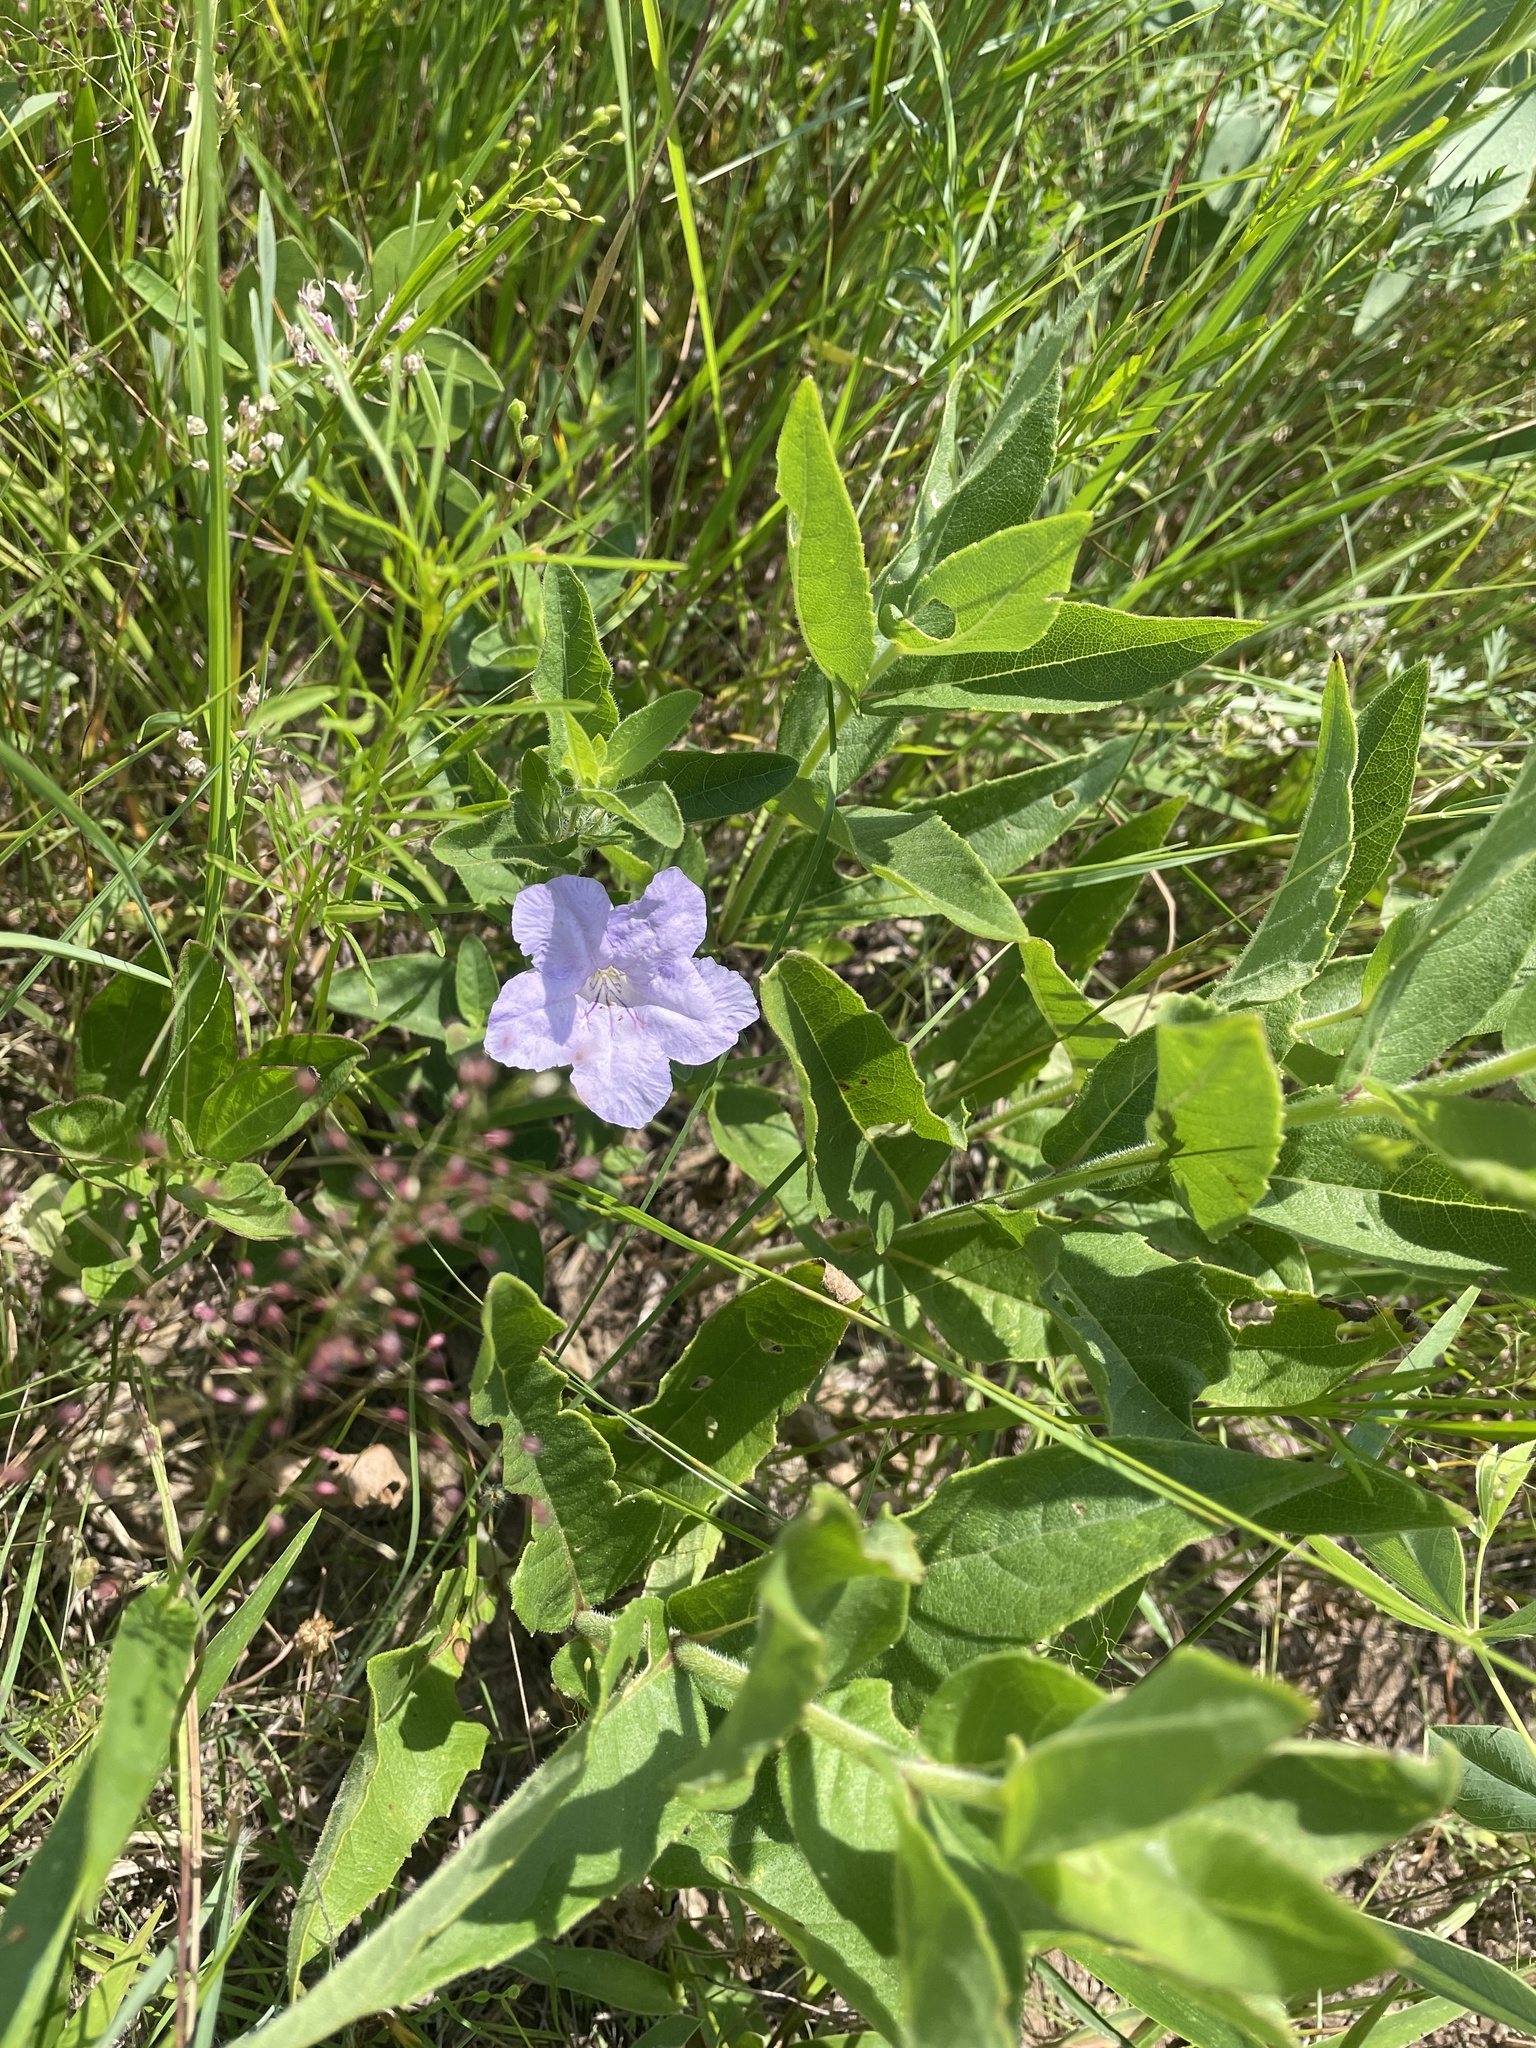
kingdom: Plantae
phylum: Tracheophyta
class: Magnoliopsida
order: Lamiales
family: Acanthaceae
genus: Ruellia
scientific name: Ruellia humilis
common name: Fringe-leaf ruellia
